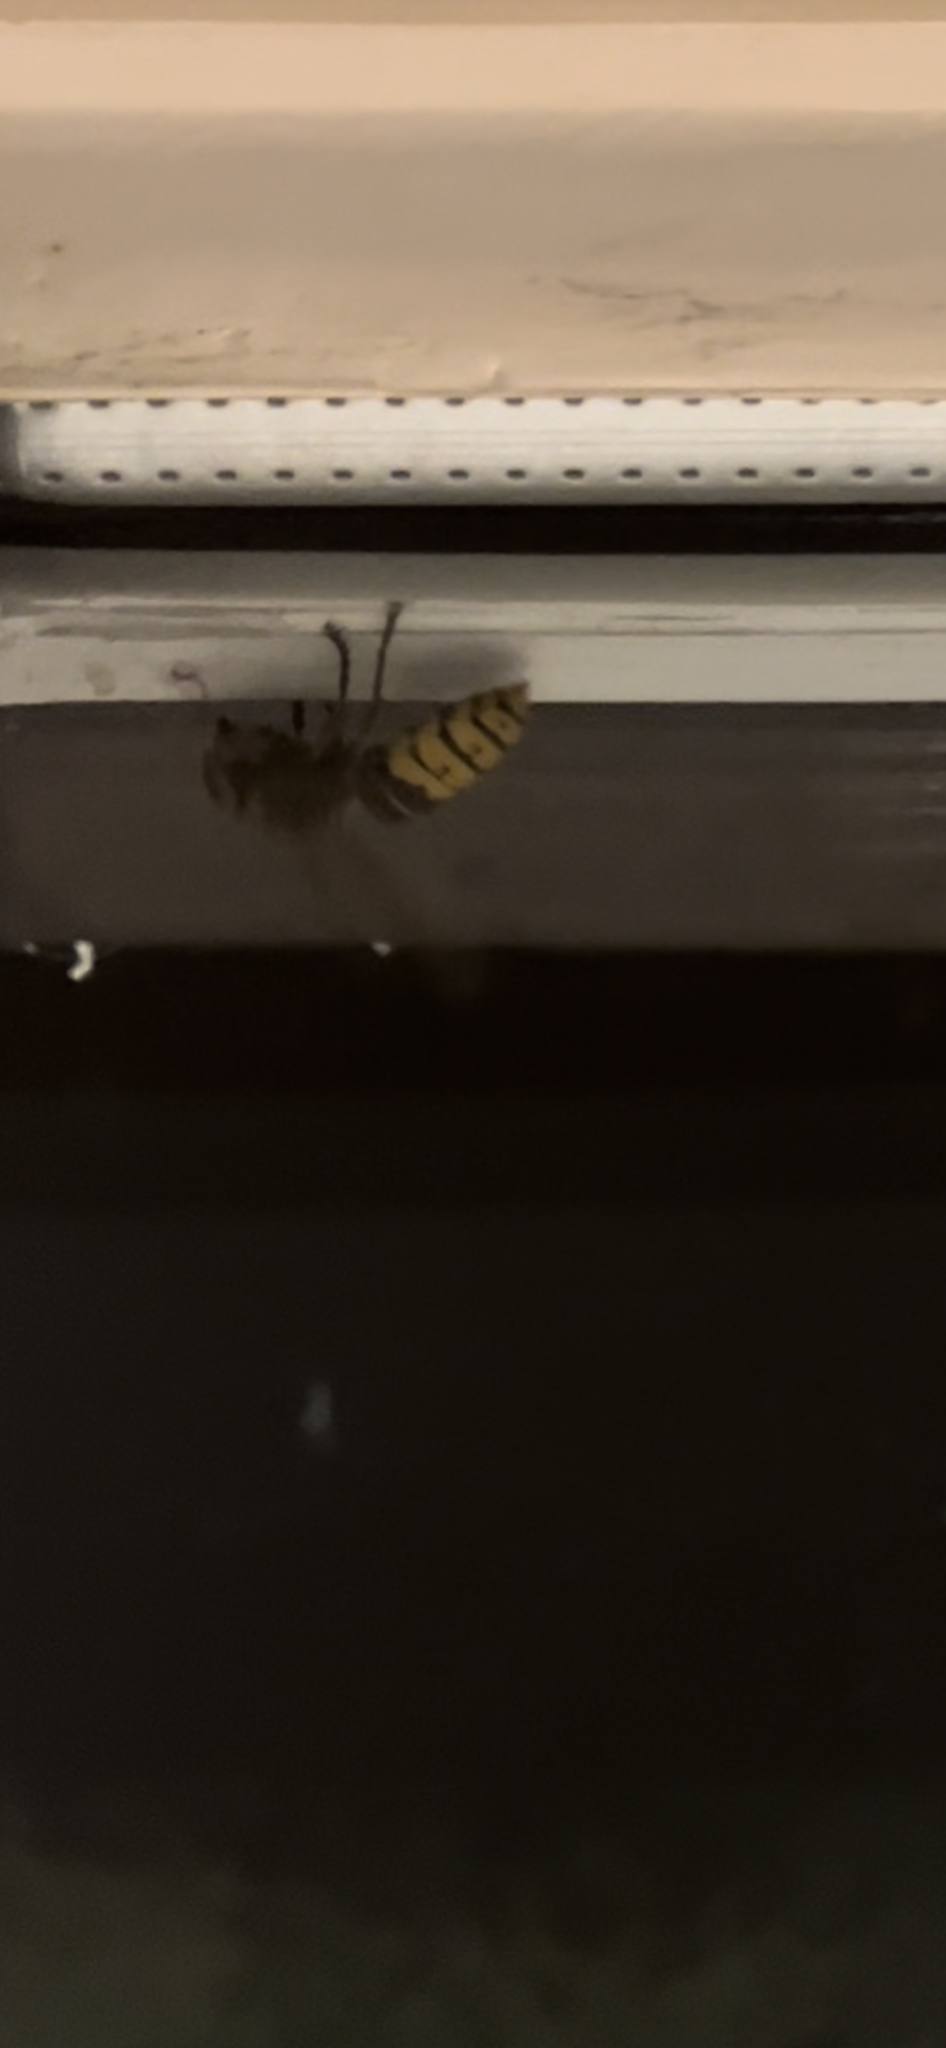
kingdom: Animalia
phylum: Arthropoda
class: Insecta
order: Hymenoptera
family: Vespidae
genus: Vespa
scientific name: Vespa crabro
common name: Hornet
